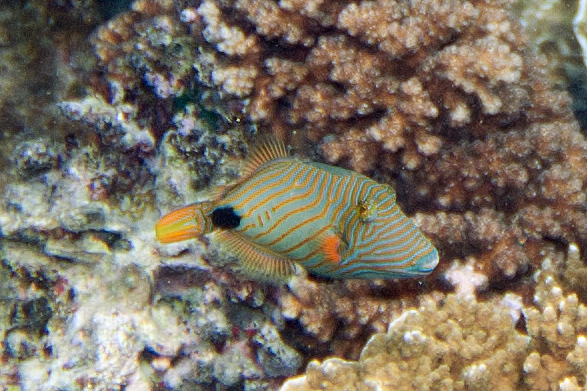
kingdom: Animalia
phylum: Chordata
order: Tetraodontiformes
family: Balistidae
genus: Balistapus
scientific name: Balistapus undulatus
